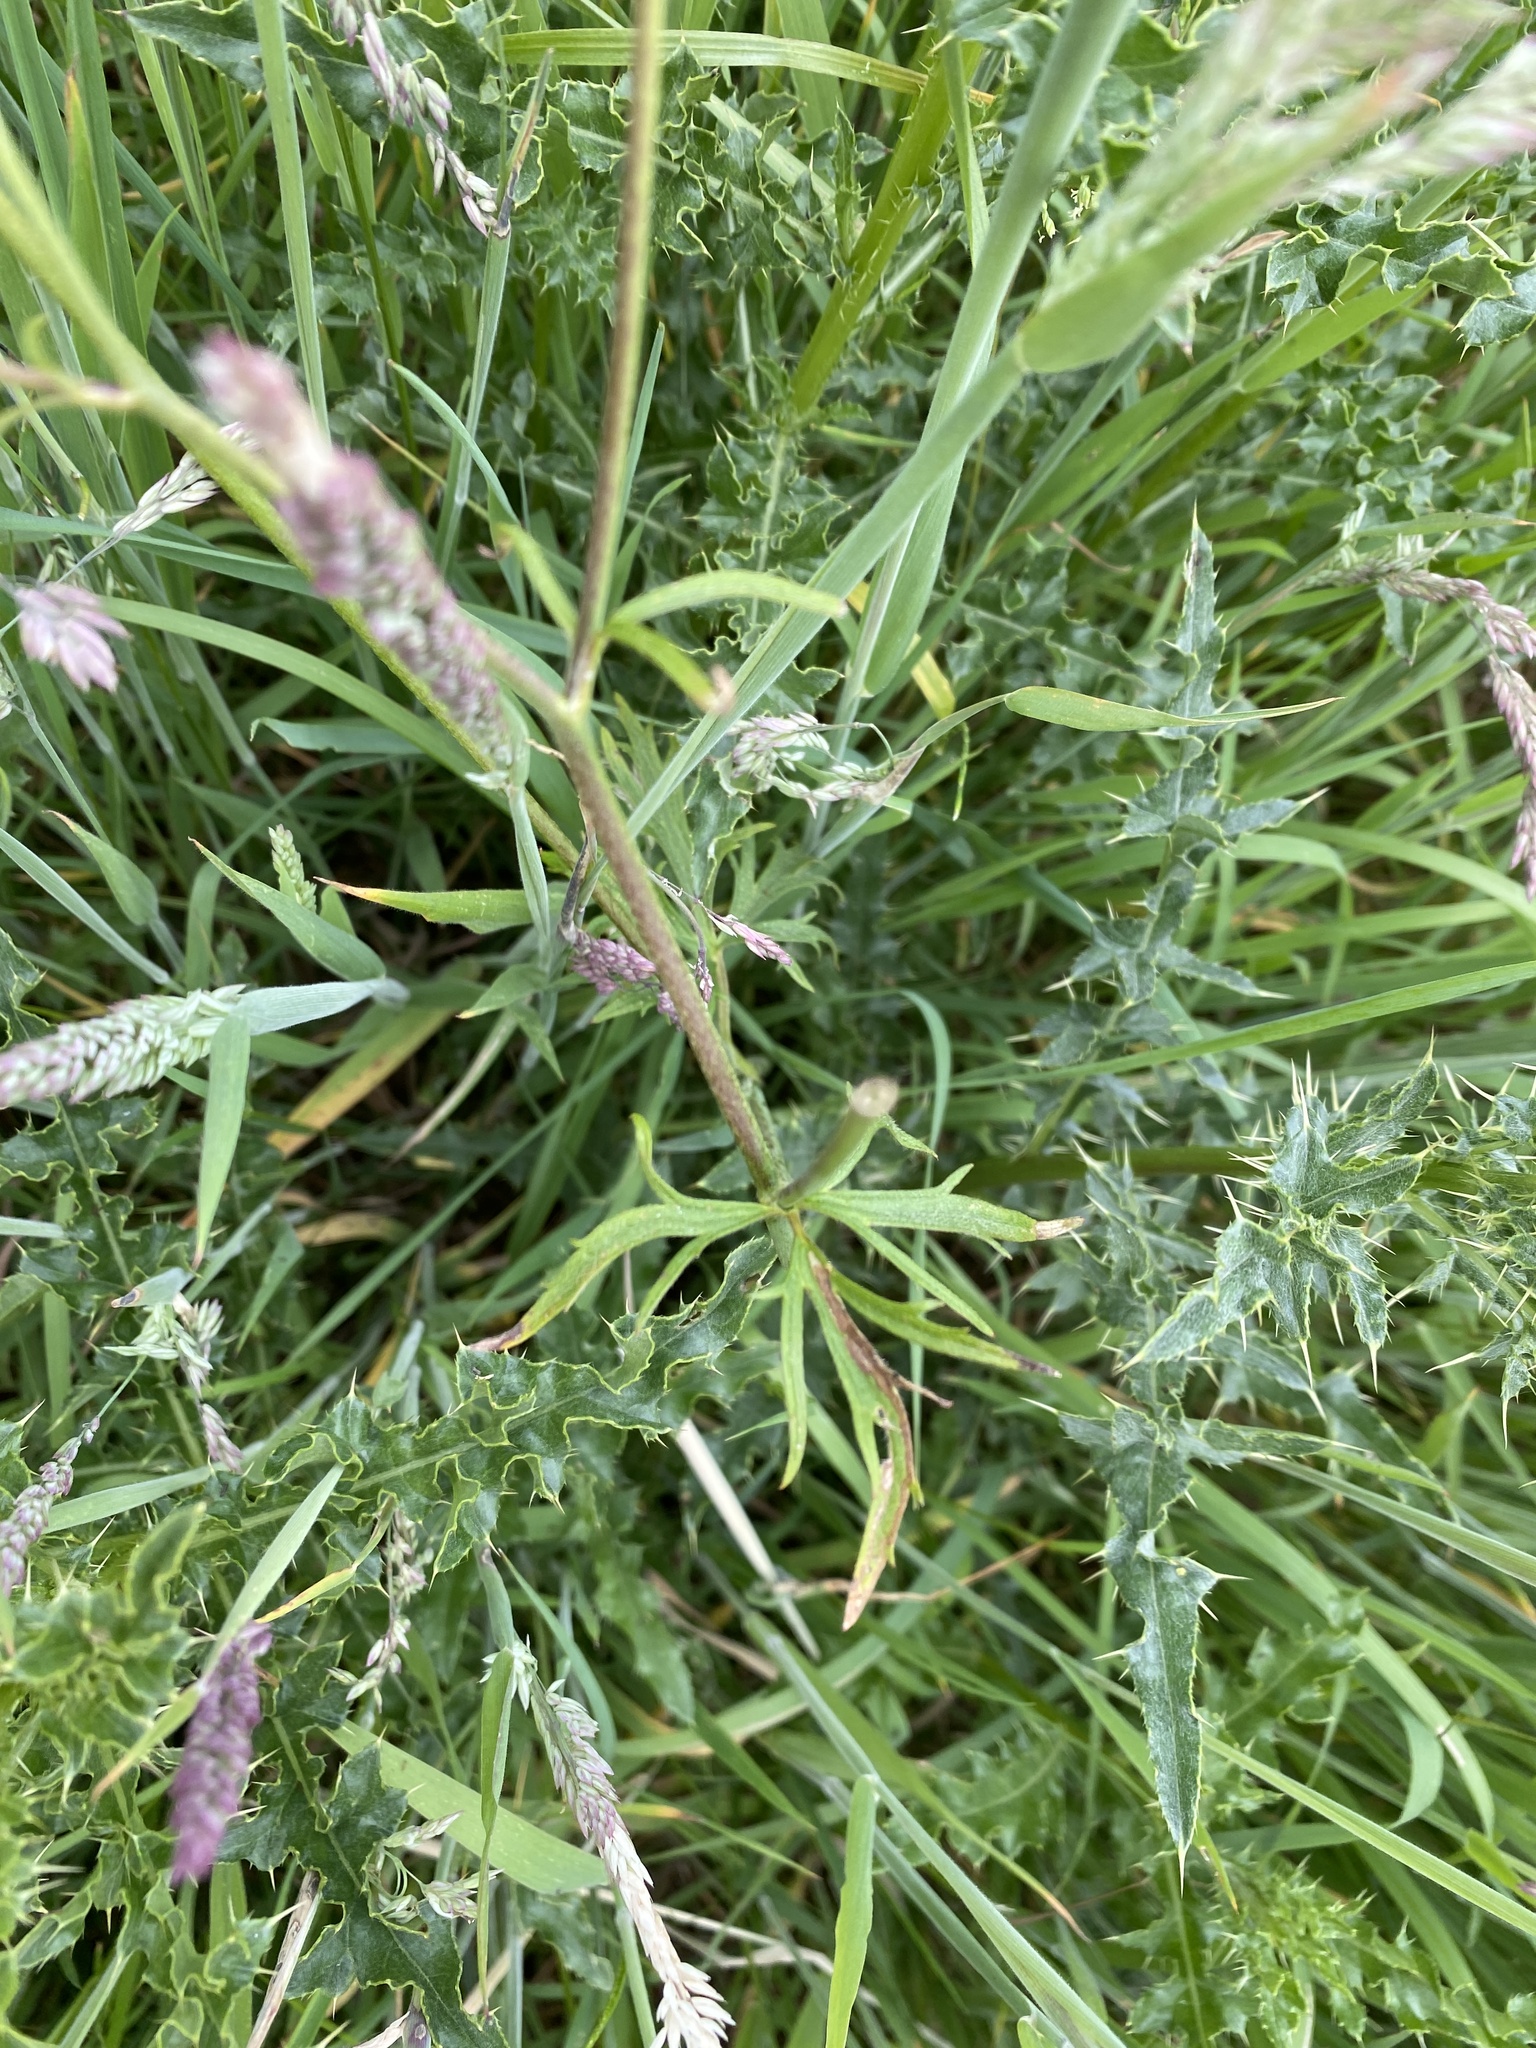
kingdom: Plantae
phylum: Tracheophyta
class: Magnoliopsida
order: Ranunculales
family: Ranunculaceae
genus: Ranunculus
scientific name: Ranunculus acris
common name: Meadow buttercup
